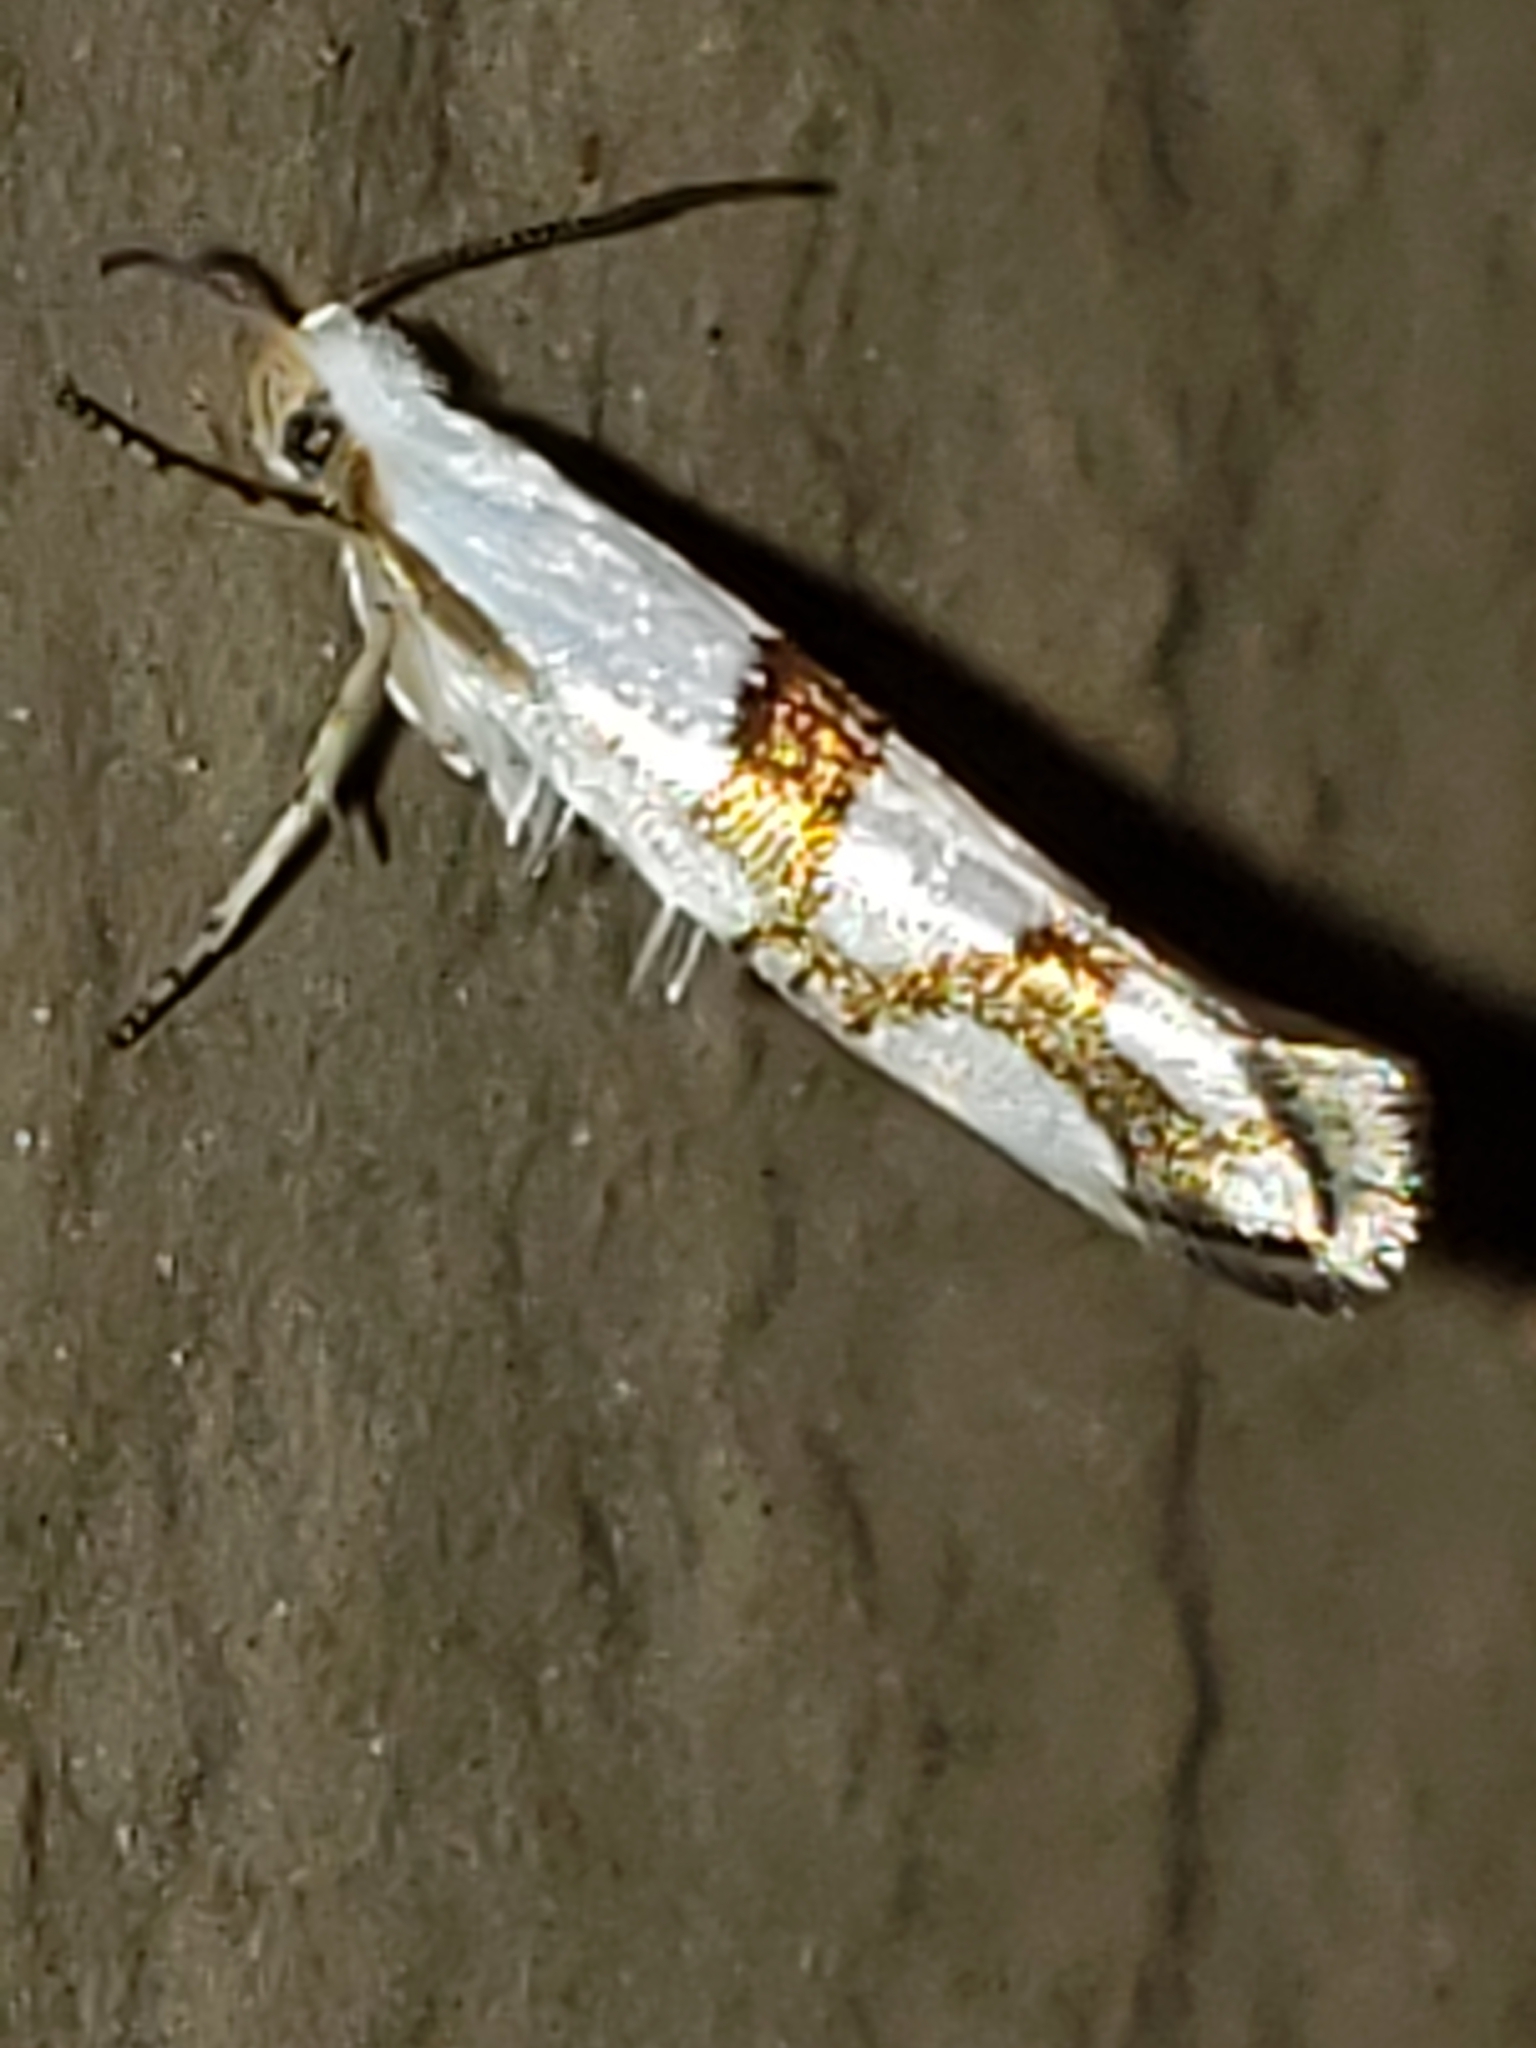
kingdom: Animalia
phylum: Arthropoda
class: Insecta
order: Lepidoptera
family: Argyresthiidae
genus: Argyresthia
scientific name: Argyresthia oreasella
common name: Cherry shoot borer moth
